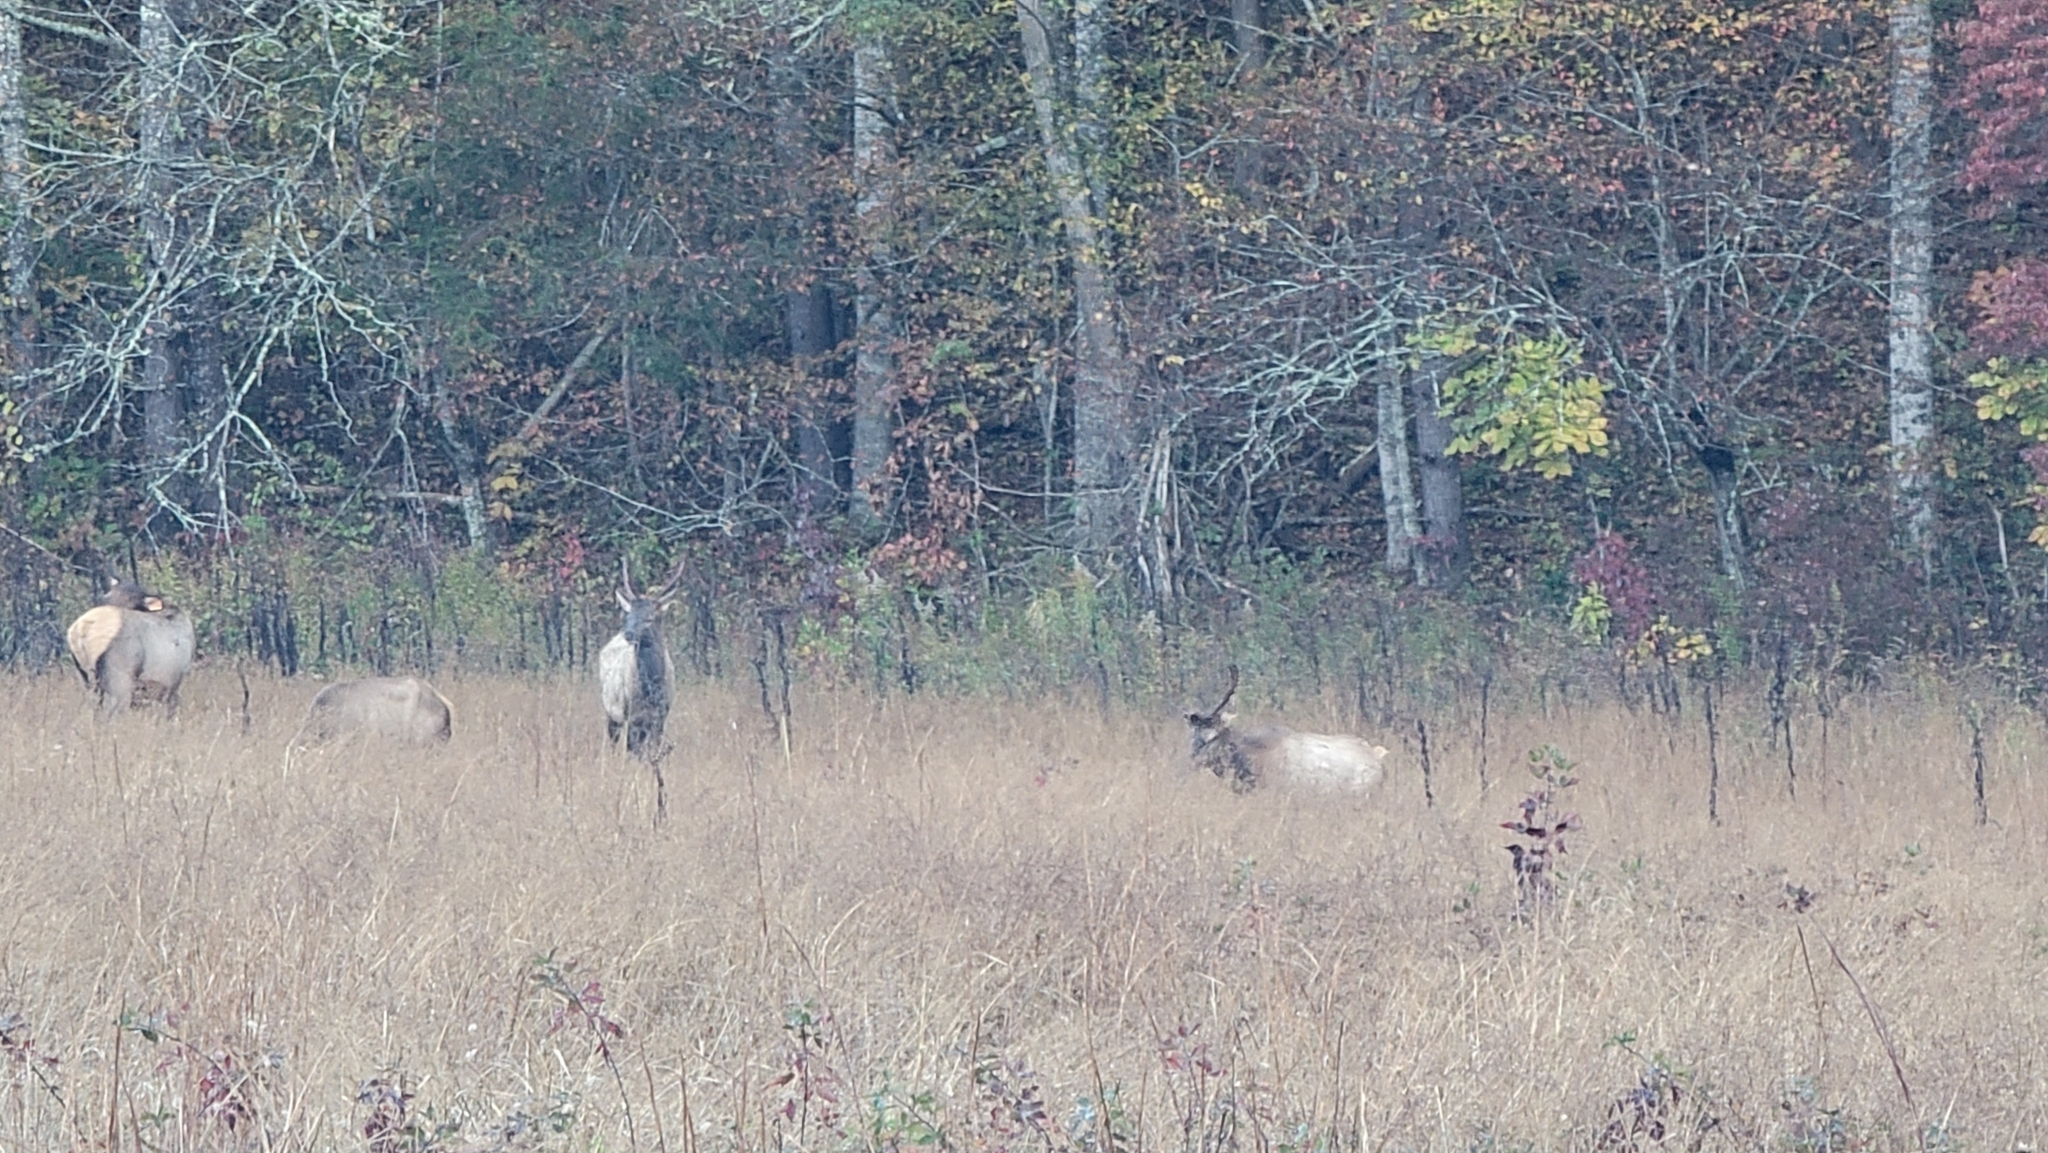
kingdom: Animalia
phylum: Chordata
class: Mammalia
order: Artiodactyla
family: Cervidae
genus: Cervus
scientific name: Cervus elaphus
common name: Red deer
